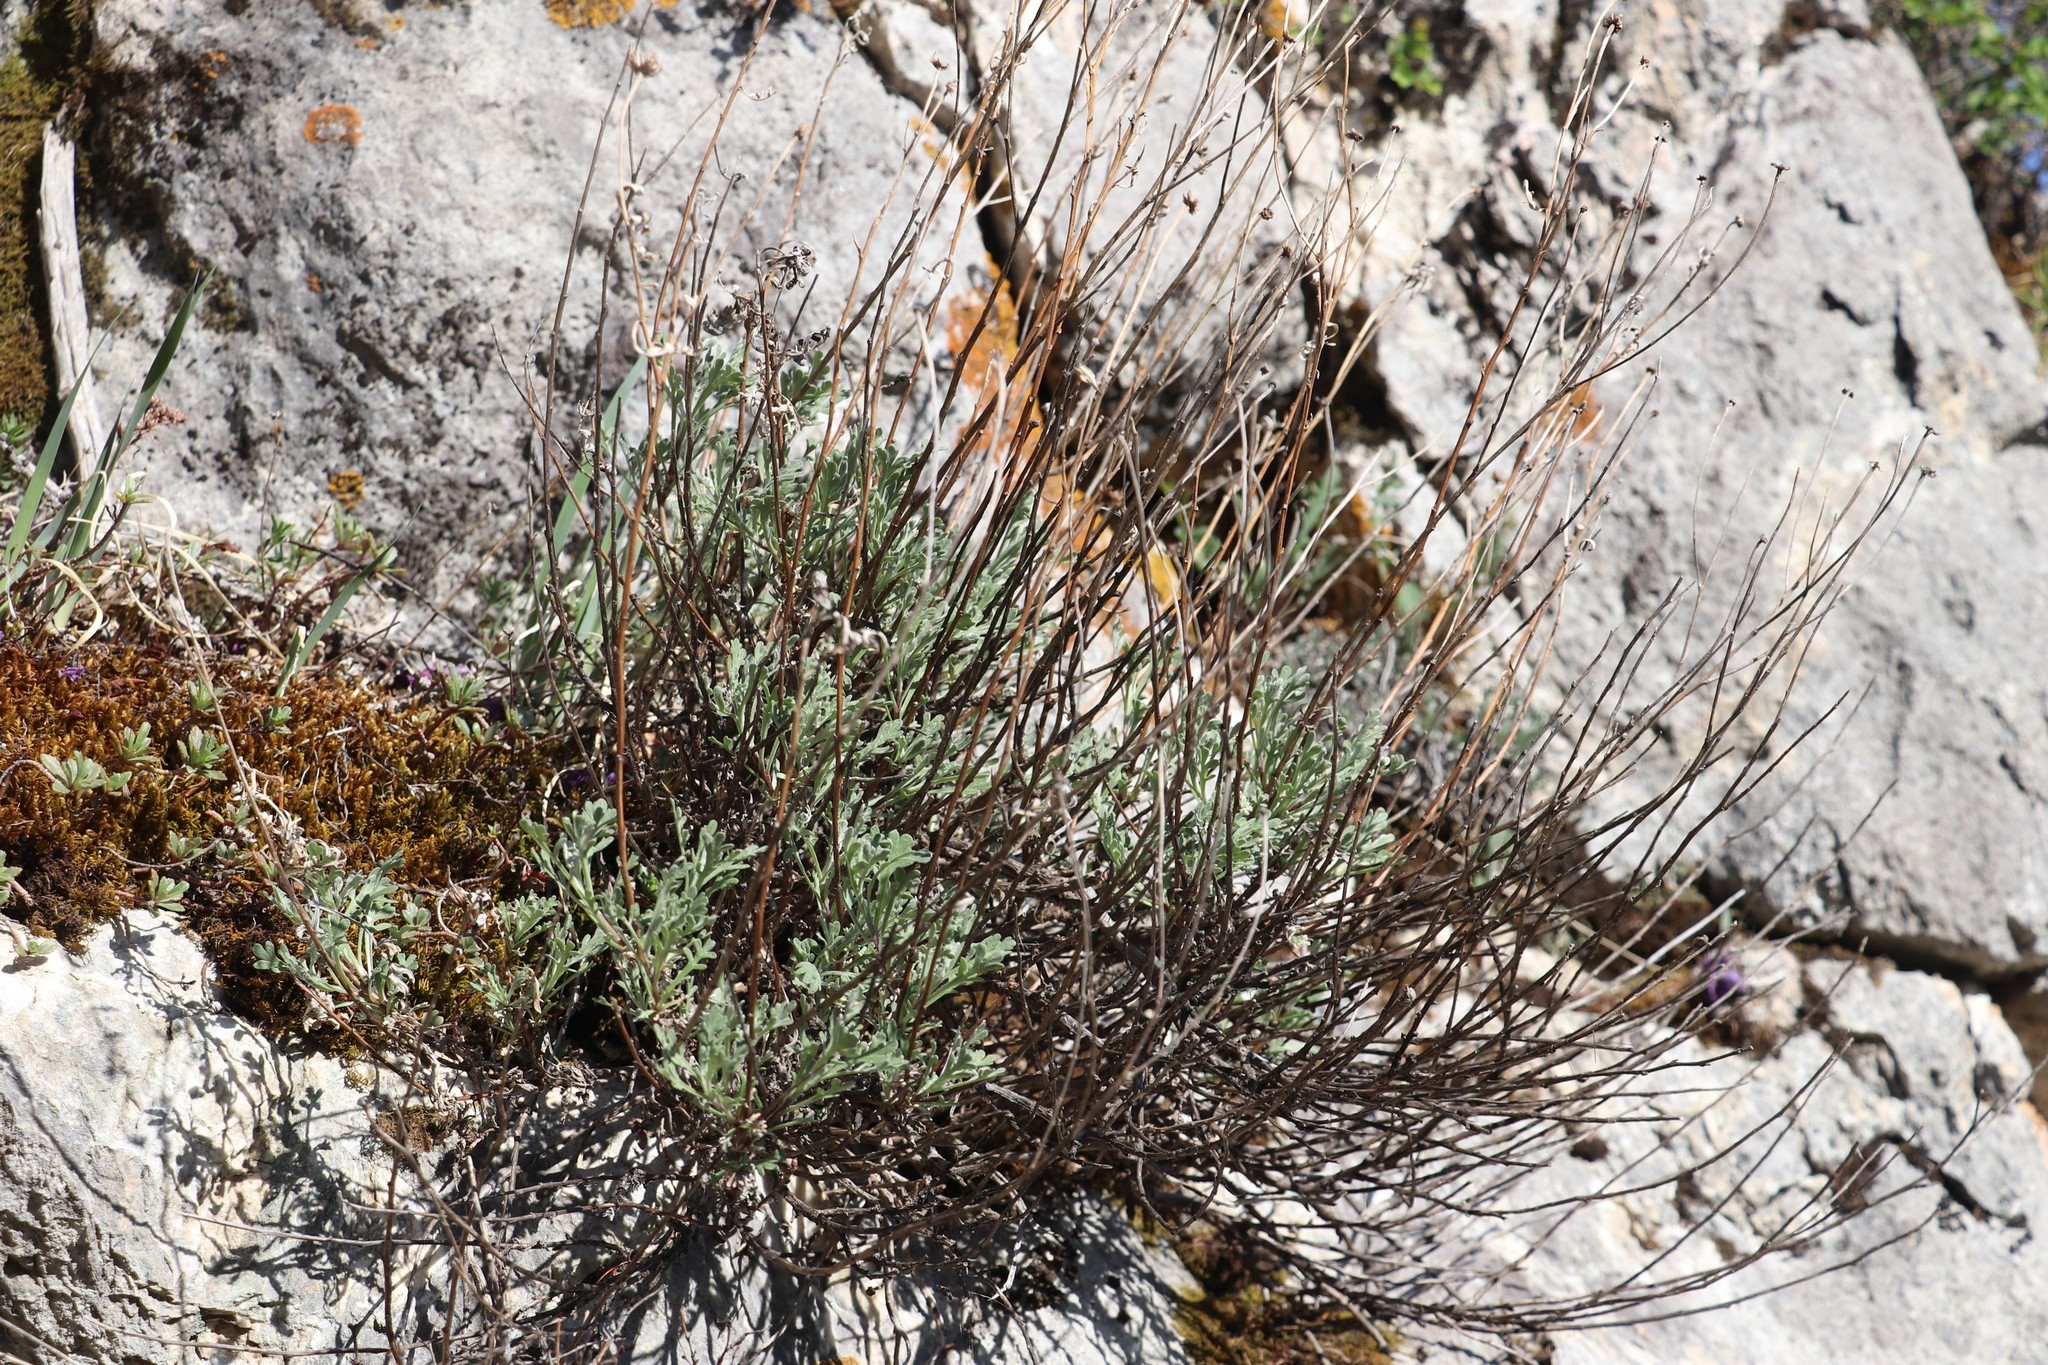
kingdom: Plantae
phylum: Tracheophyta
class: Magnoliopsida
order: Asterales
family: Asteraceae
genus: Chrysanthemum
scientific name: Chrysanthemum sinuatum
